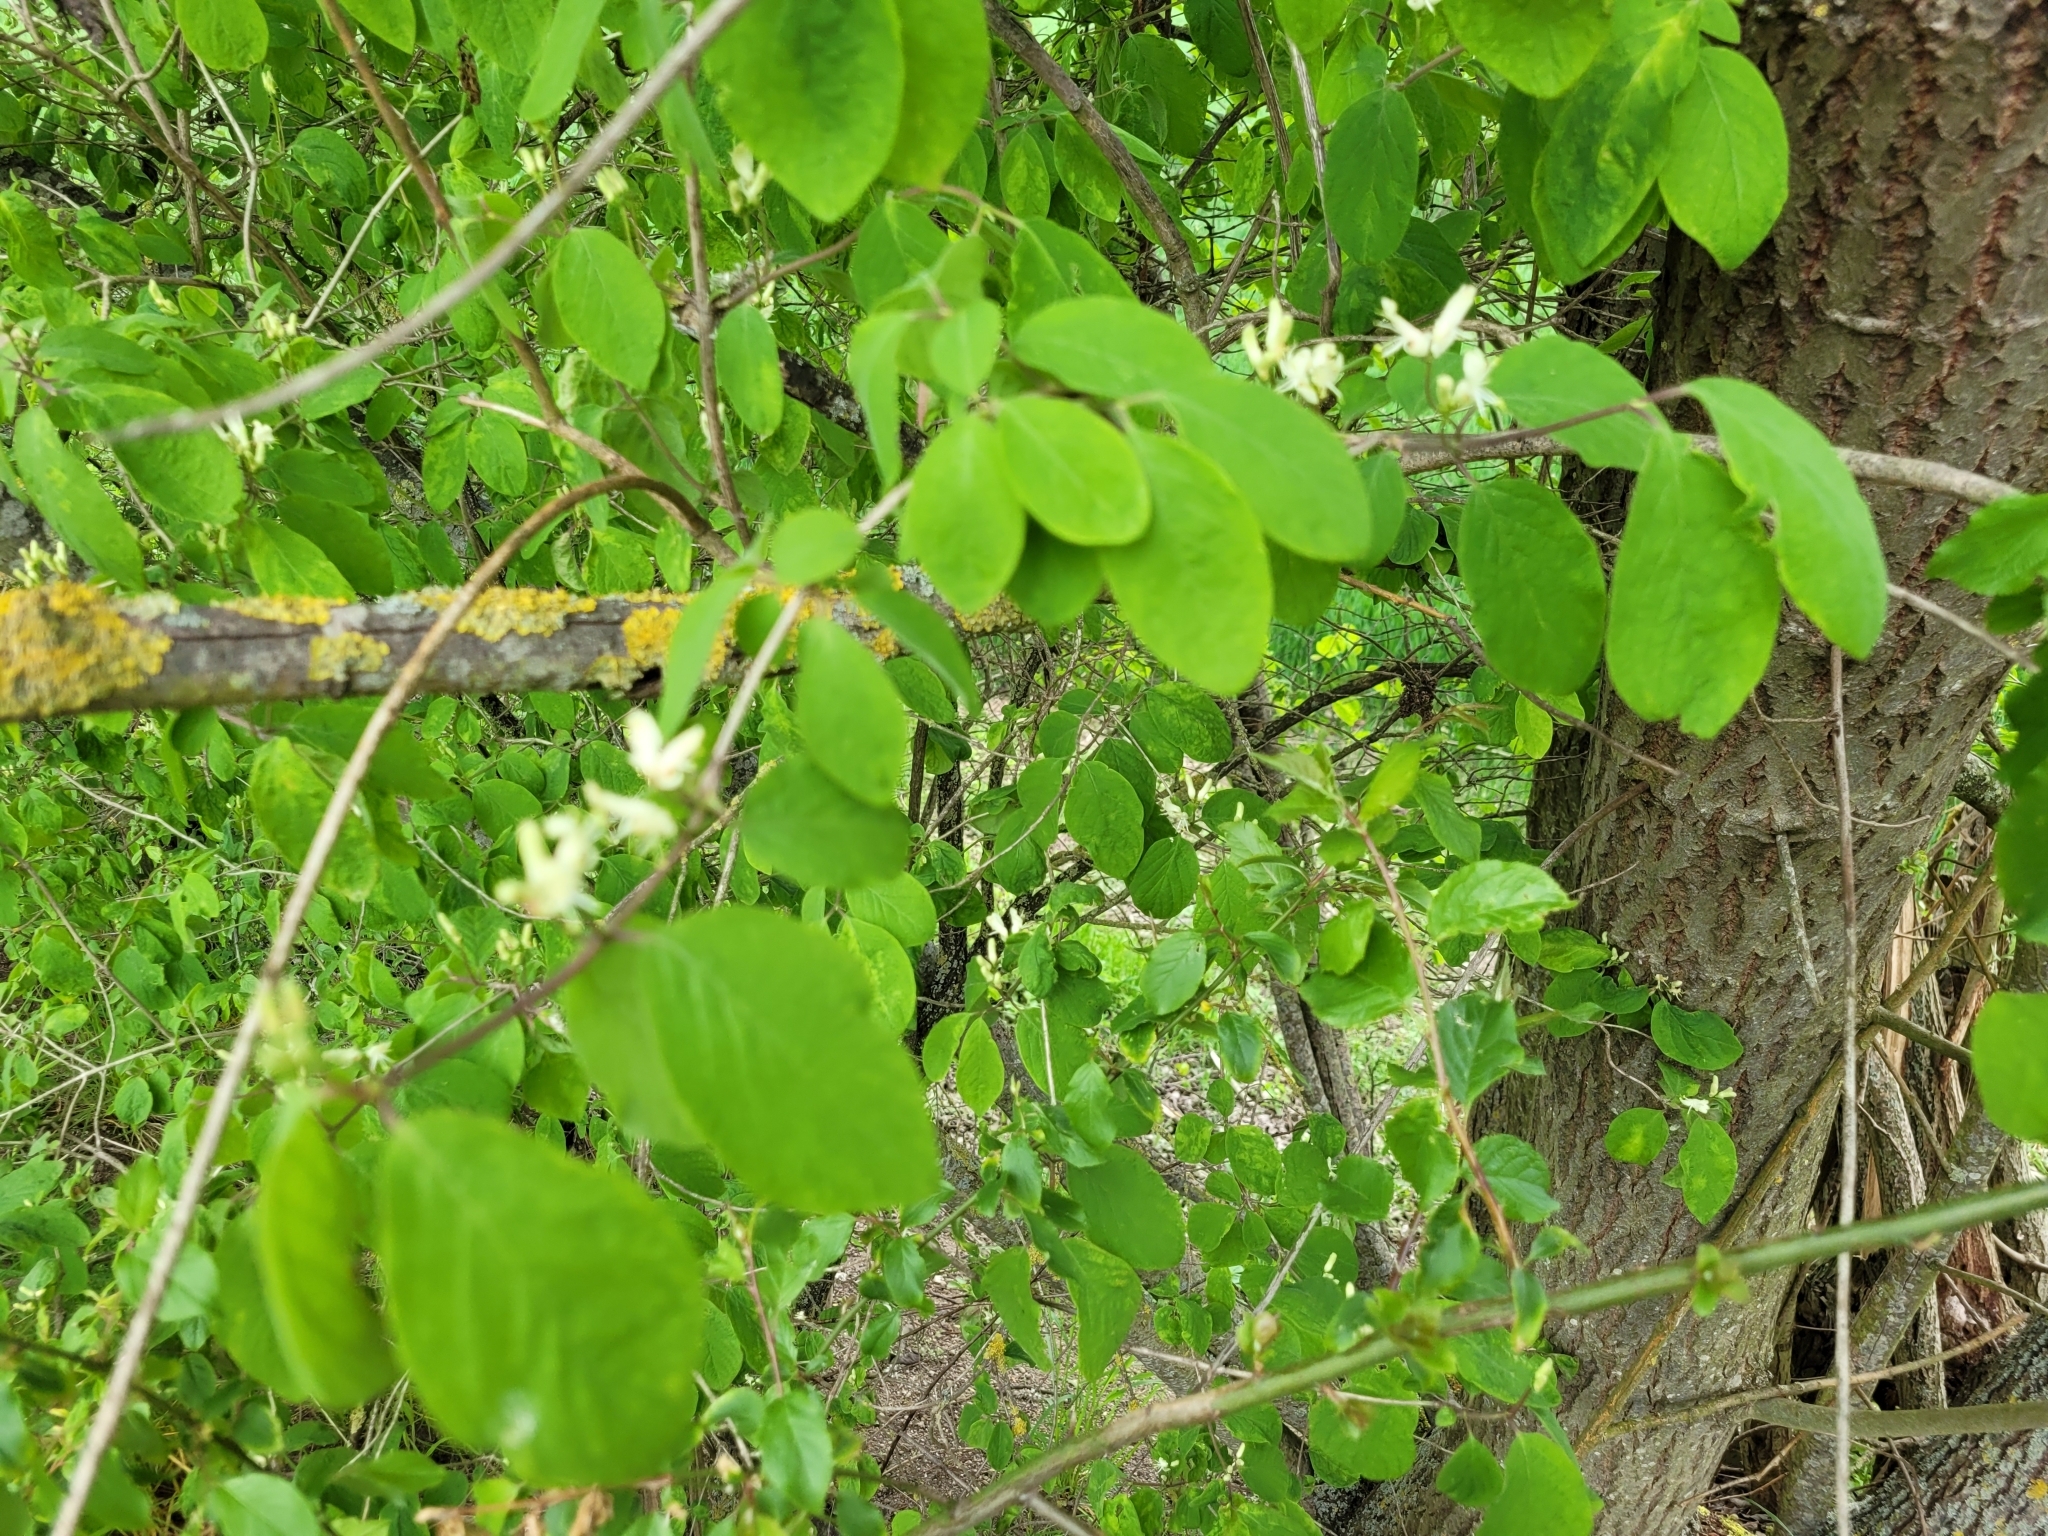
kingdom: Plantae
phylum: Tracheophyta
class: Magnoliopsida
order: Dipsacales
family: Caprifoliaceae
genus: Lonicera
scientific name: Lonicera xylosteum
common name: Fly honeysuckle
